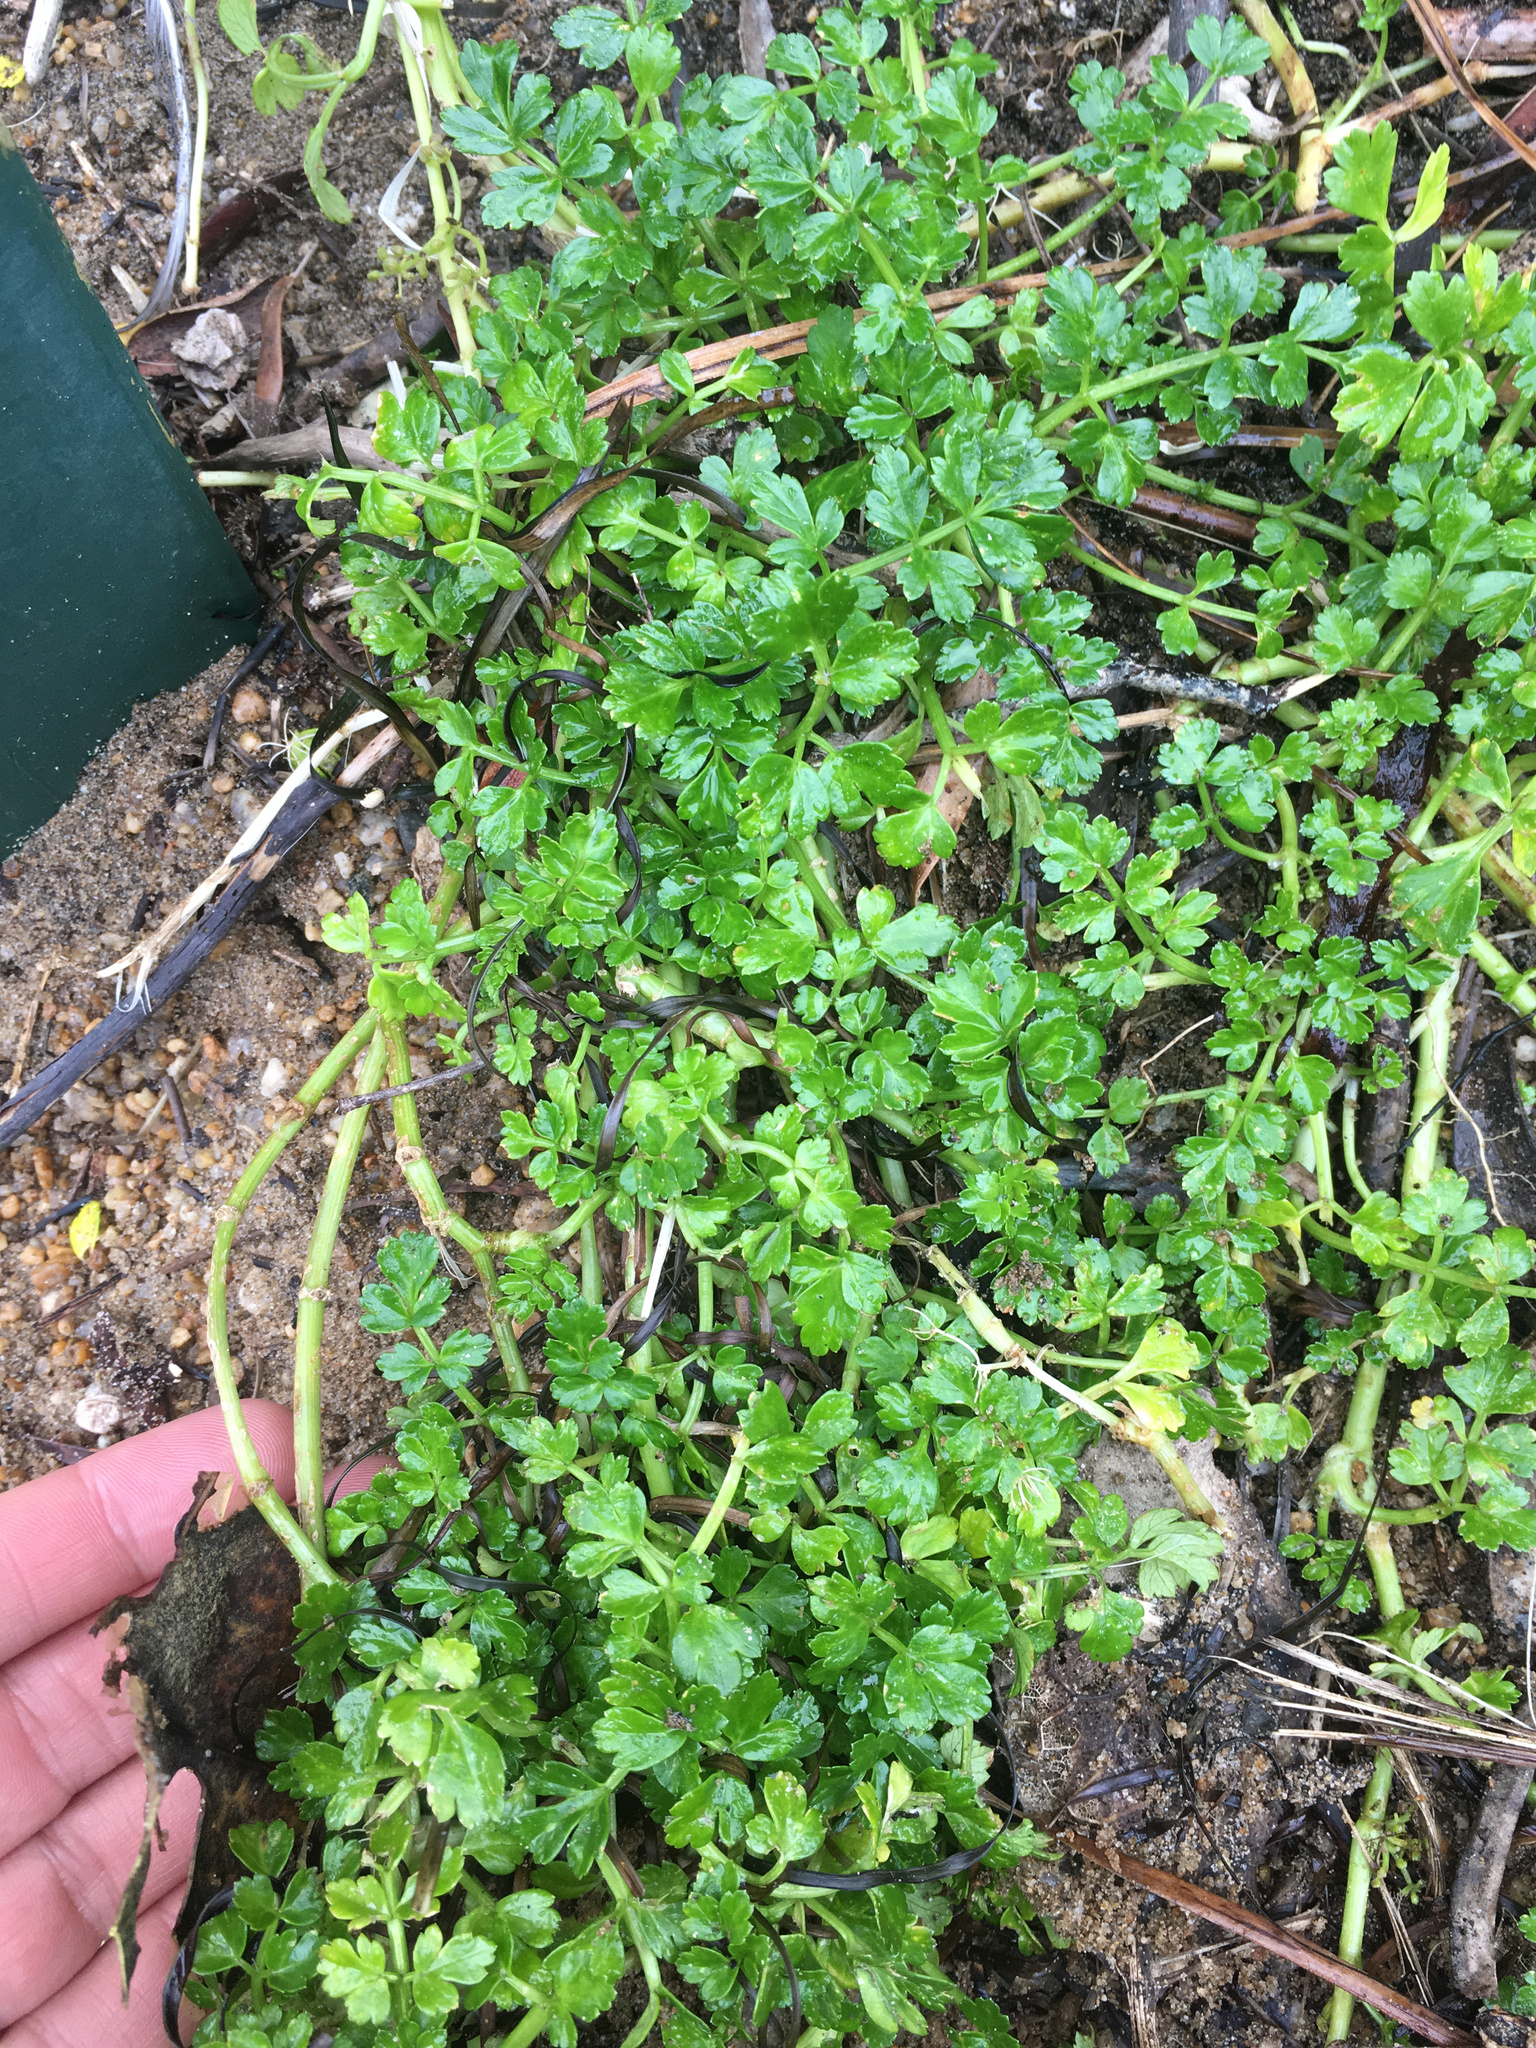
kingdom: Plantae
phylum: Tracheophyta
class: Magnoliopsida
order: Apiales
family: Apiaceae
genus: Apium
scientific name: Apium prostratum
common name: Prostrate marshwort
